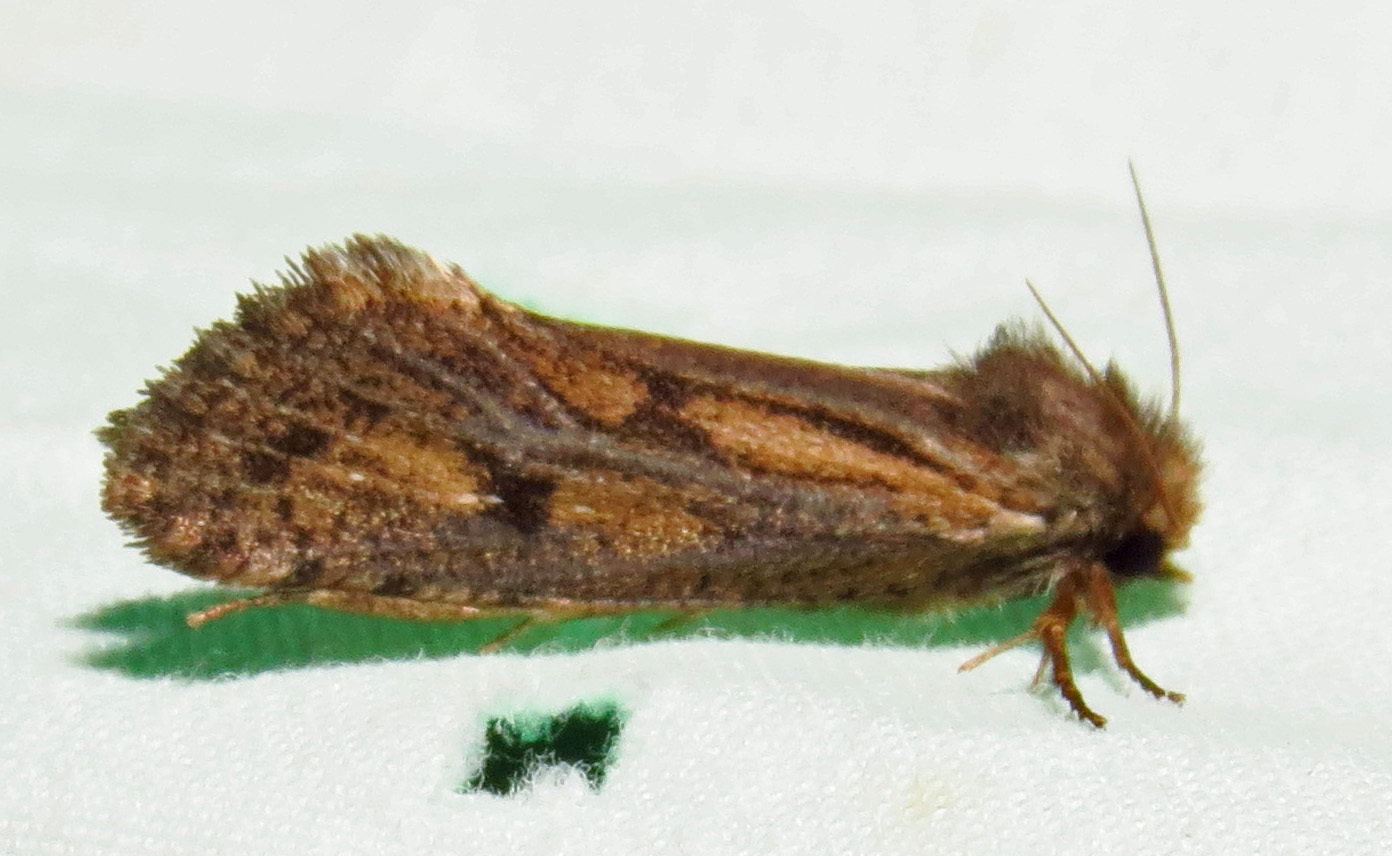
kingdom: Animalia
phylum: Arthropoda
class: Insecta
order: Lepidoptera
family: Tineidae
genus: Acrolophus
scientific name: Acrolophus popeanella
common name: Clemens' grass tubeworm moth
